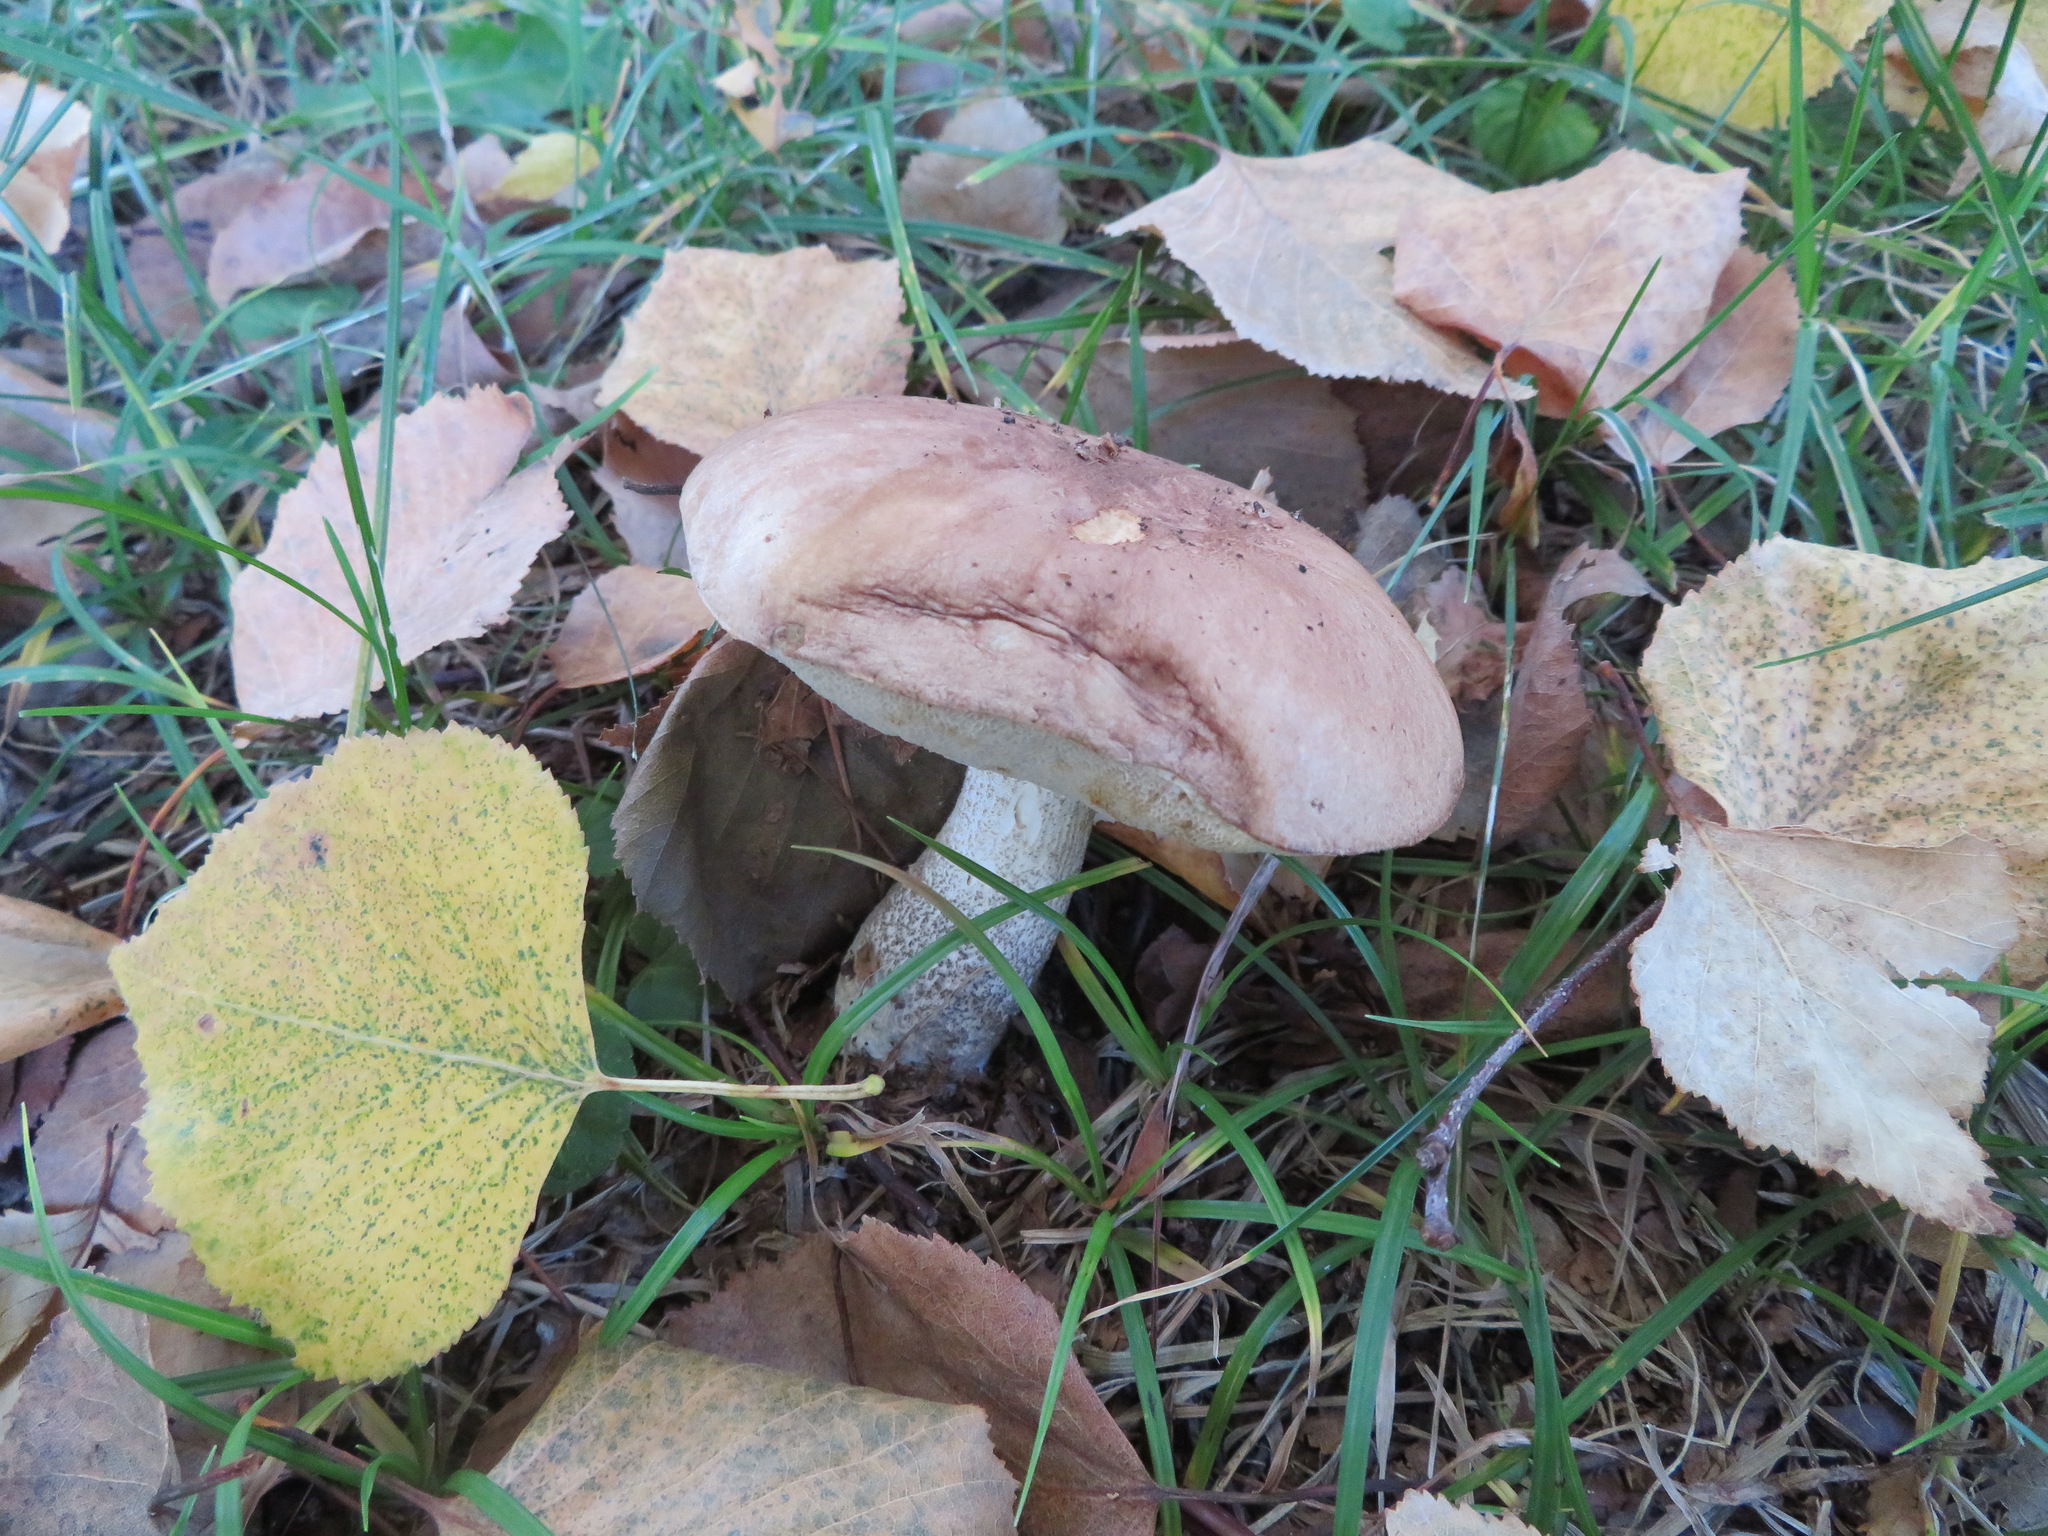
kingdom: Fungi
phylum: Basidiomycota
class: Agaricomycetes
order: Boletales
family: Boletaceae
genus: Leccinum
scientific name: Leccinum scabrum
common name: Blushing bolete
